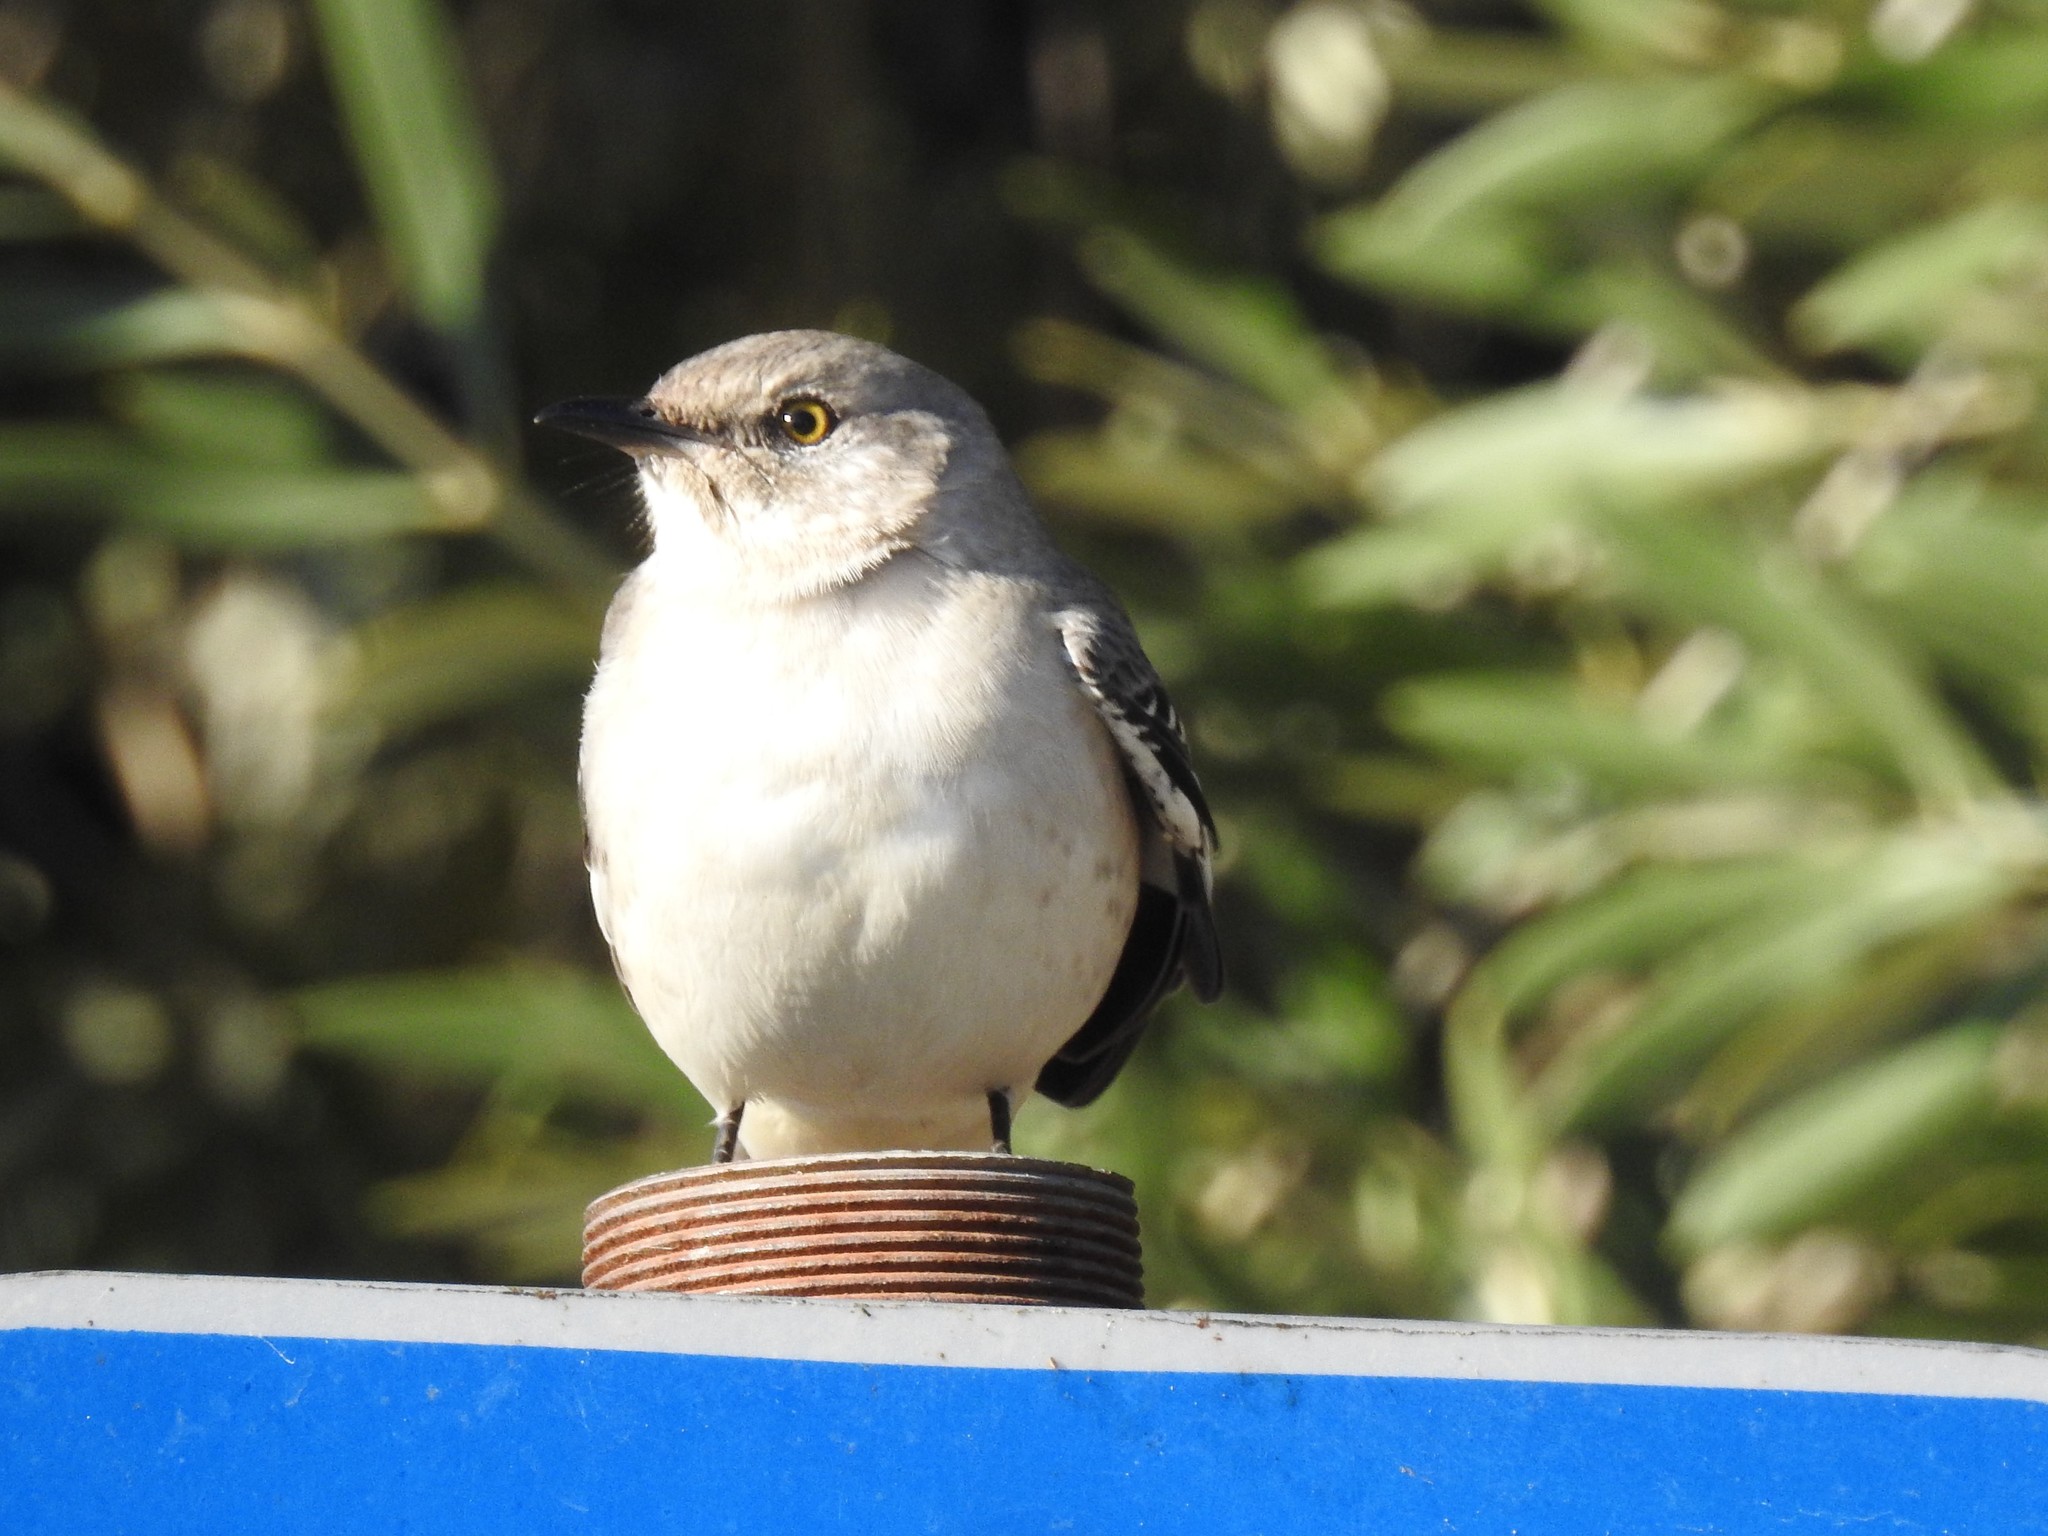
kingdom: Animalia
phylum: Chordata
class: Aves
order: Passeriformes
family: Mimidae
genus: Mimus
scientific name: Mimus polyglottos
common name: Northern mockingbird
